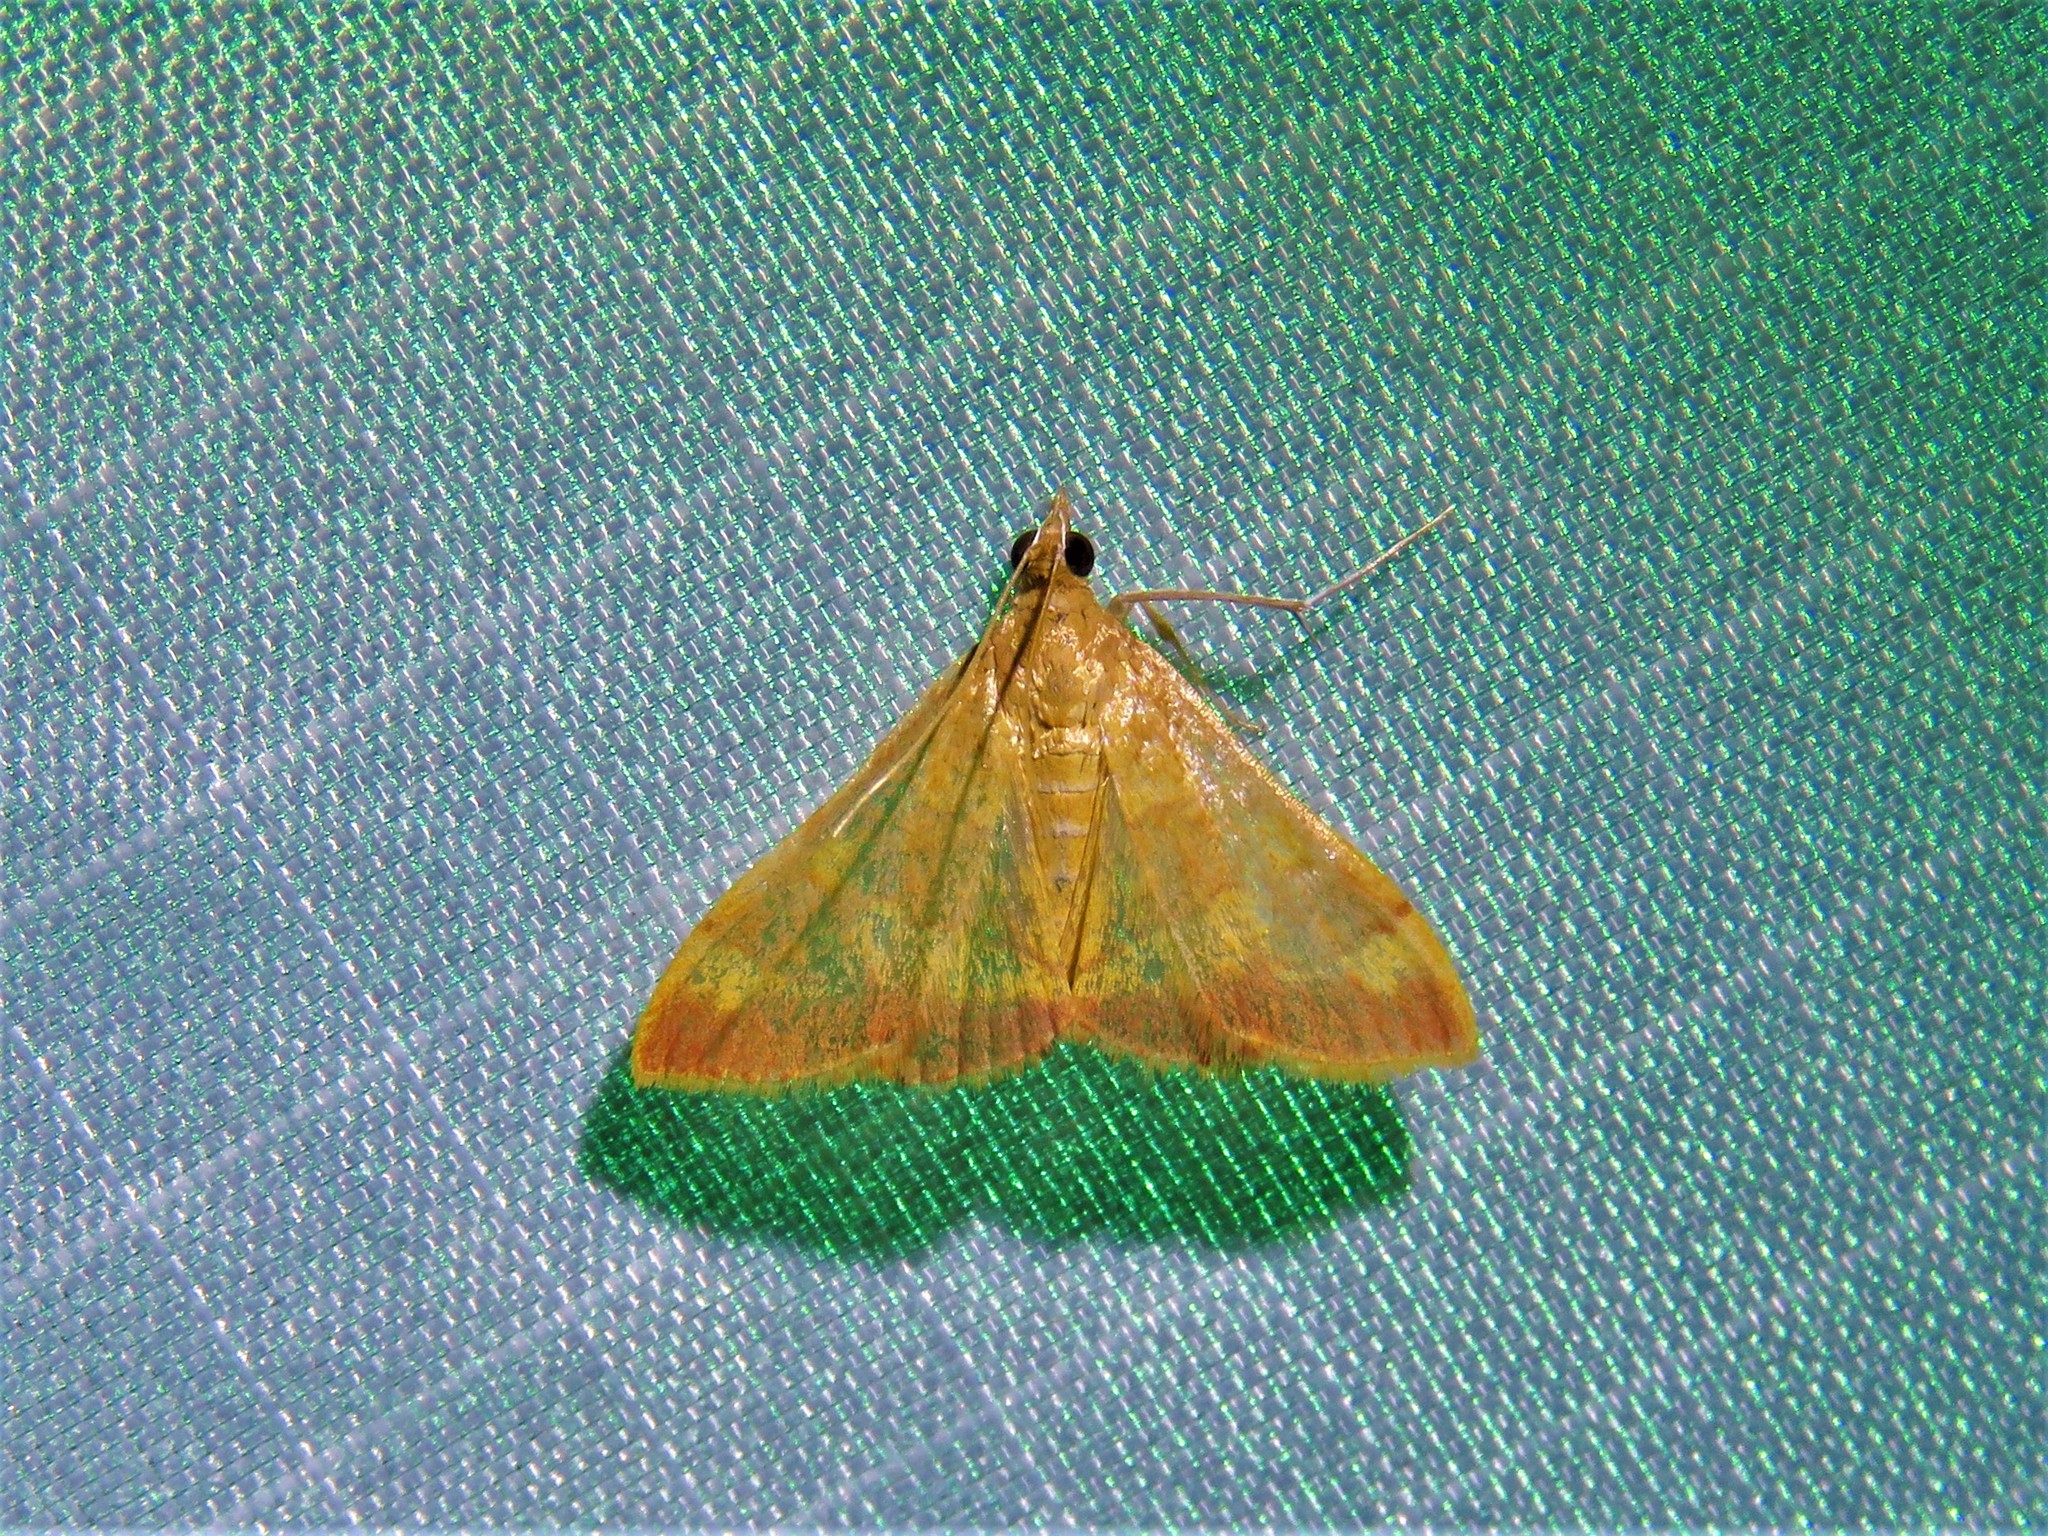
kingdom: Animalia
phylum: Arthropoda
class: Insecta
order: Lepidoptera
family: Crambidae
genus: Pyrausta
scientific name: Pyrausta pseudonythesalis
